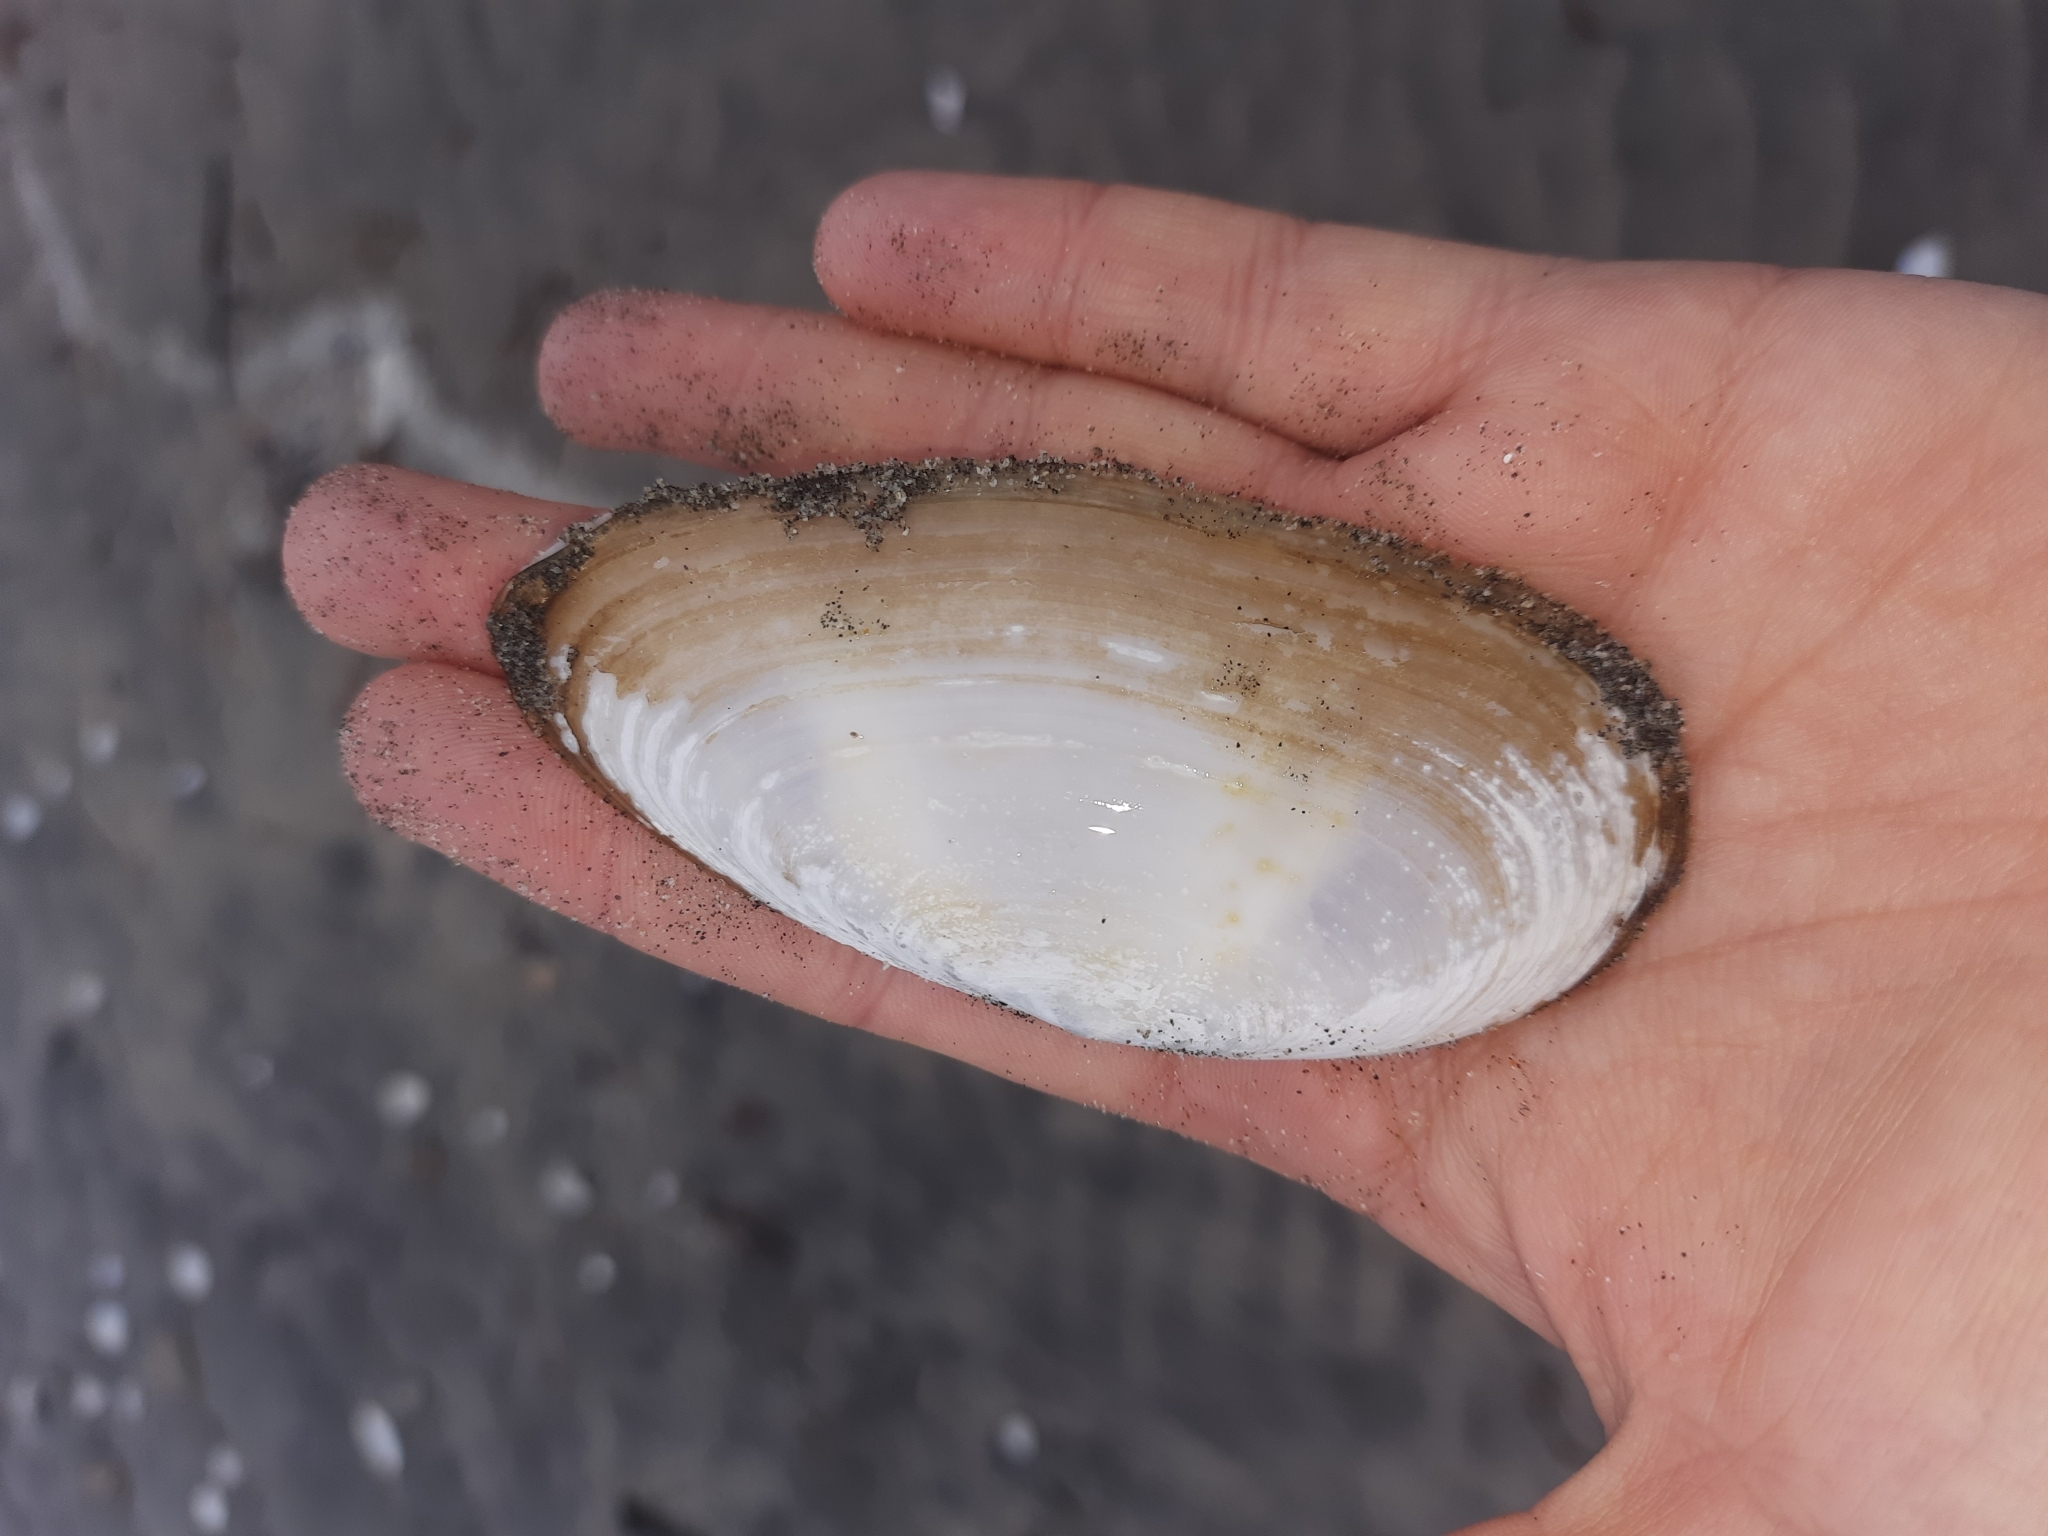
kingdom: Animalia
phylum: Mollusca
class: Bivalvia
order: Venerida
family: Mactridae
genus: Resania
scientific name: Resania lanceolata
